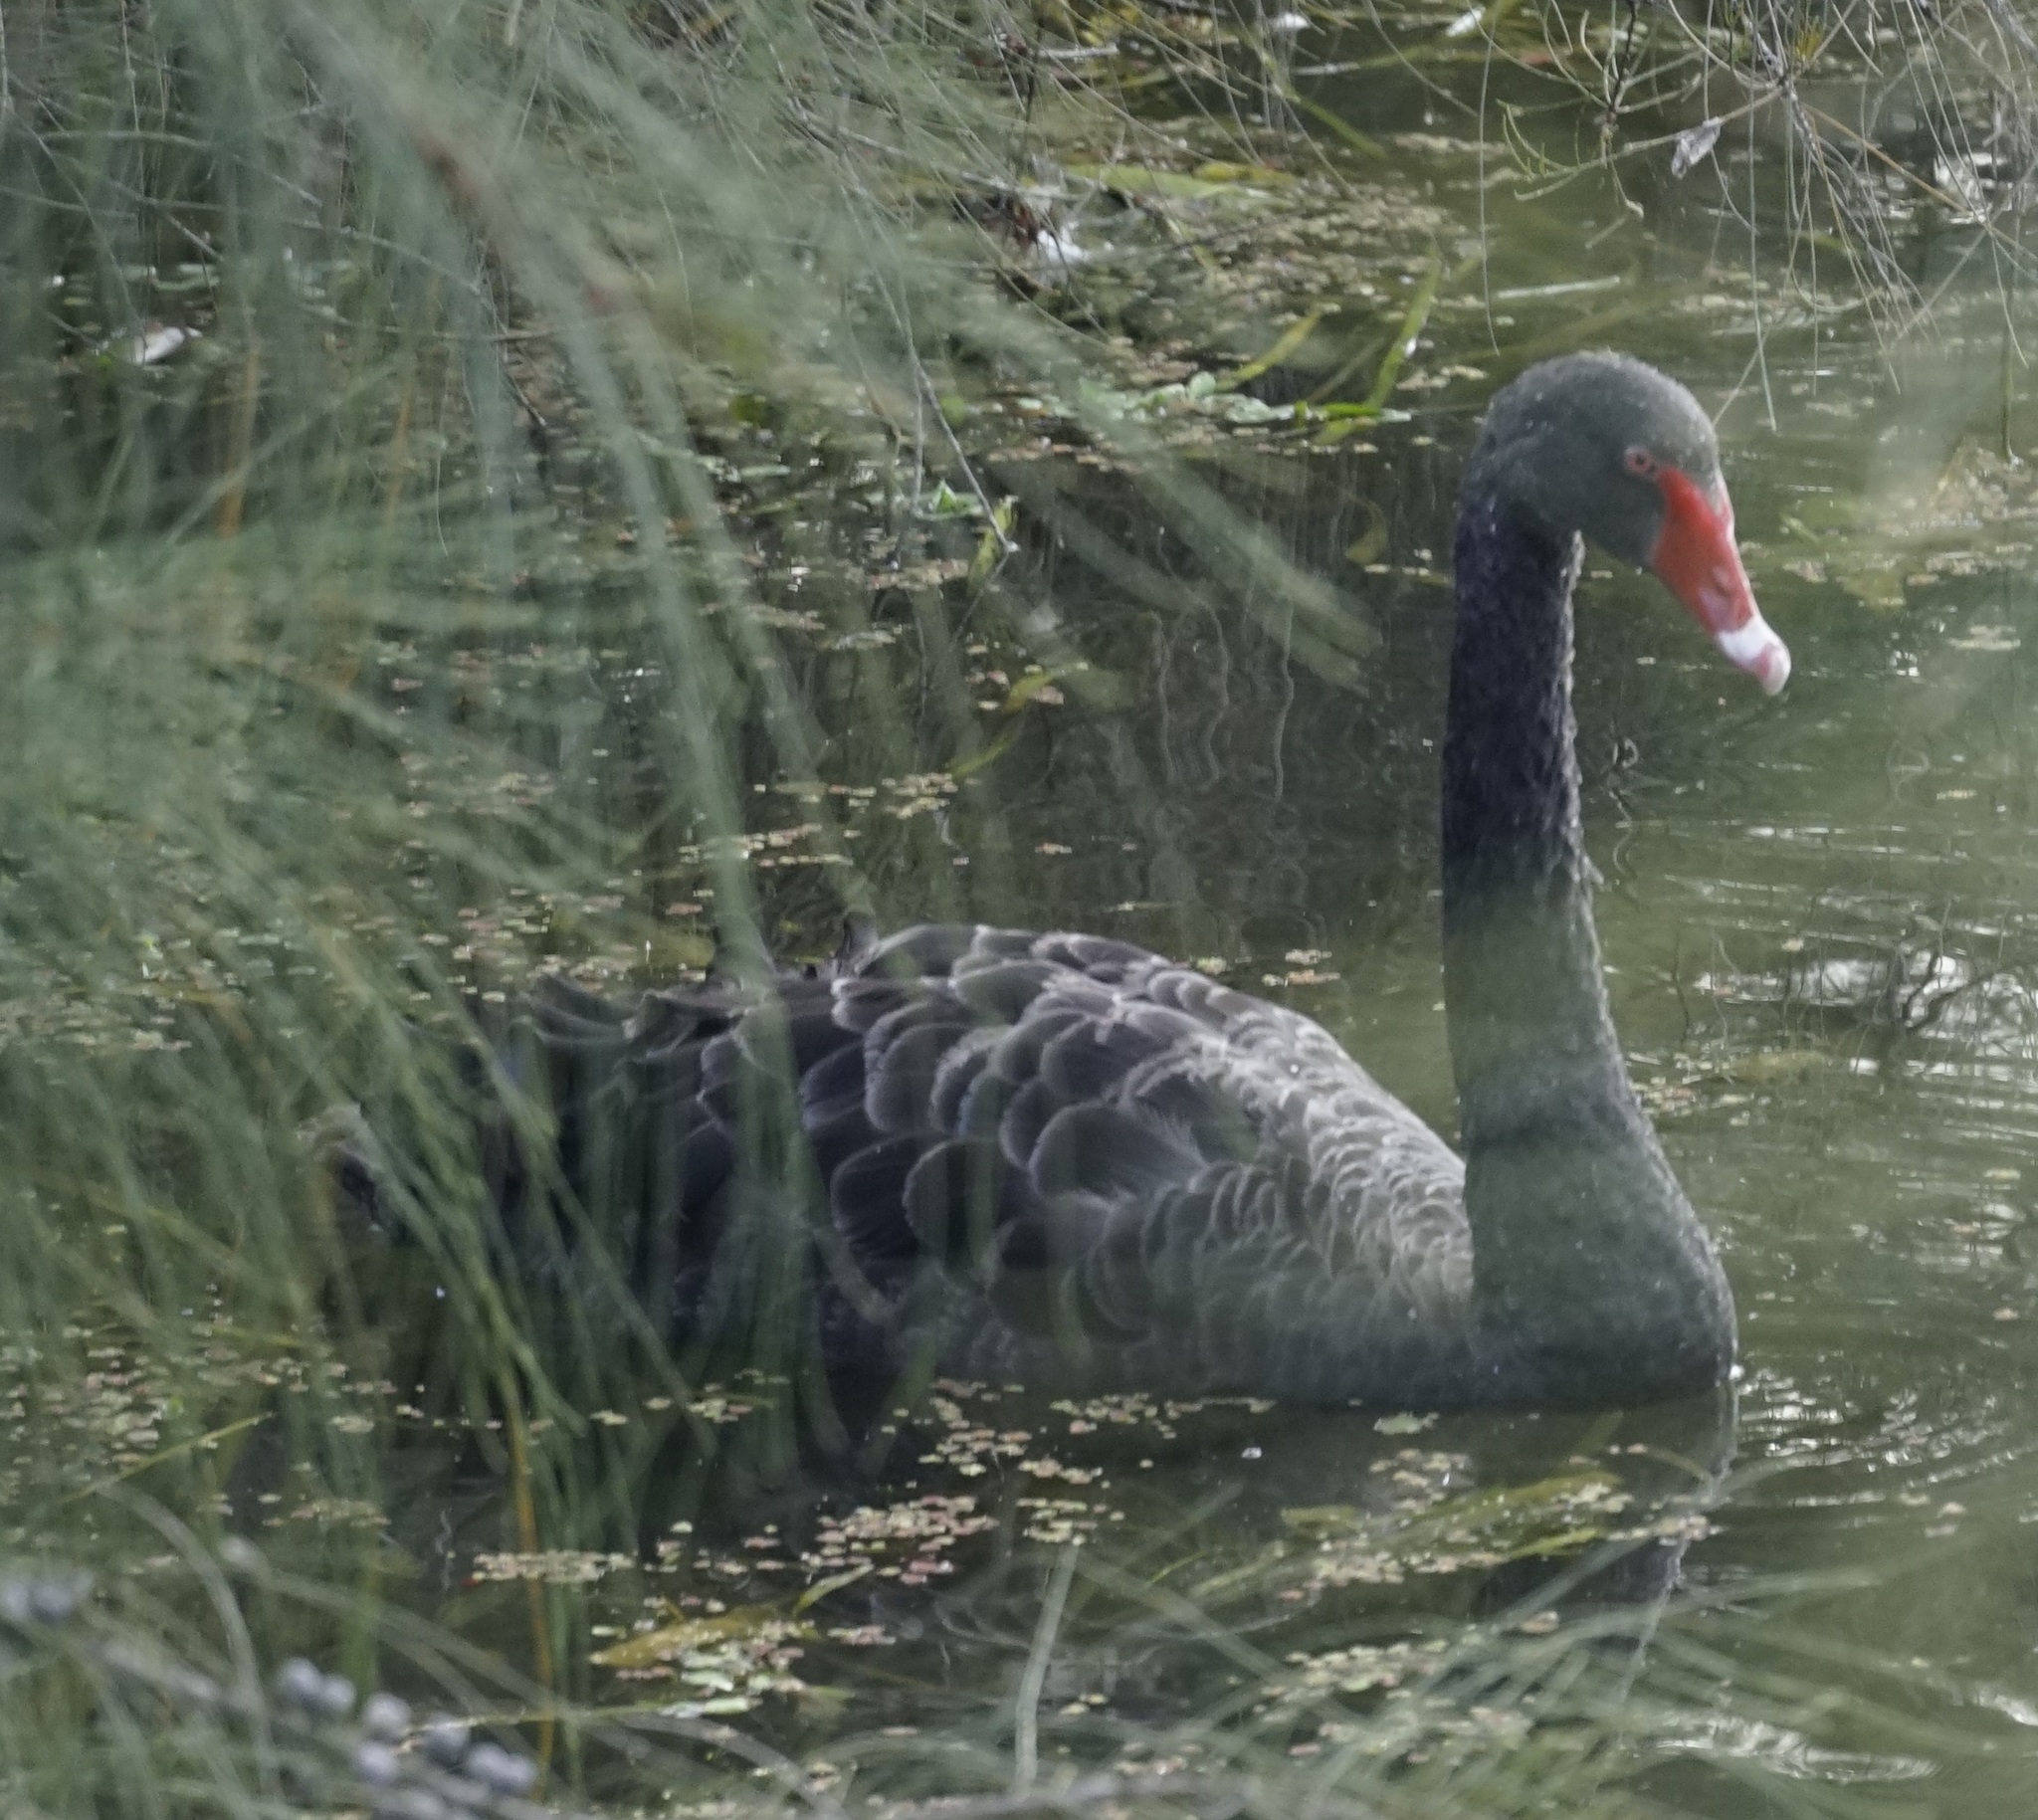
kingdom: Animalia
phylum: Chordata
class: Aves
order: Anseriformes
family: Anatidae
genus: Cygnus
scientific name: Cygnus atratus
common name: Black swan
